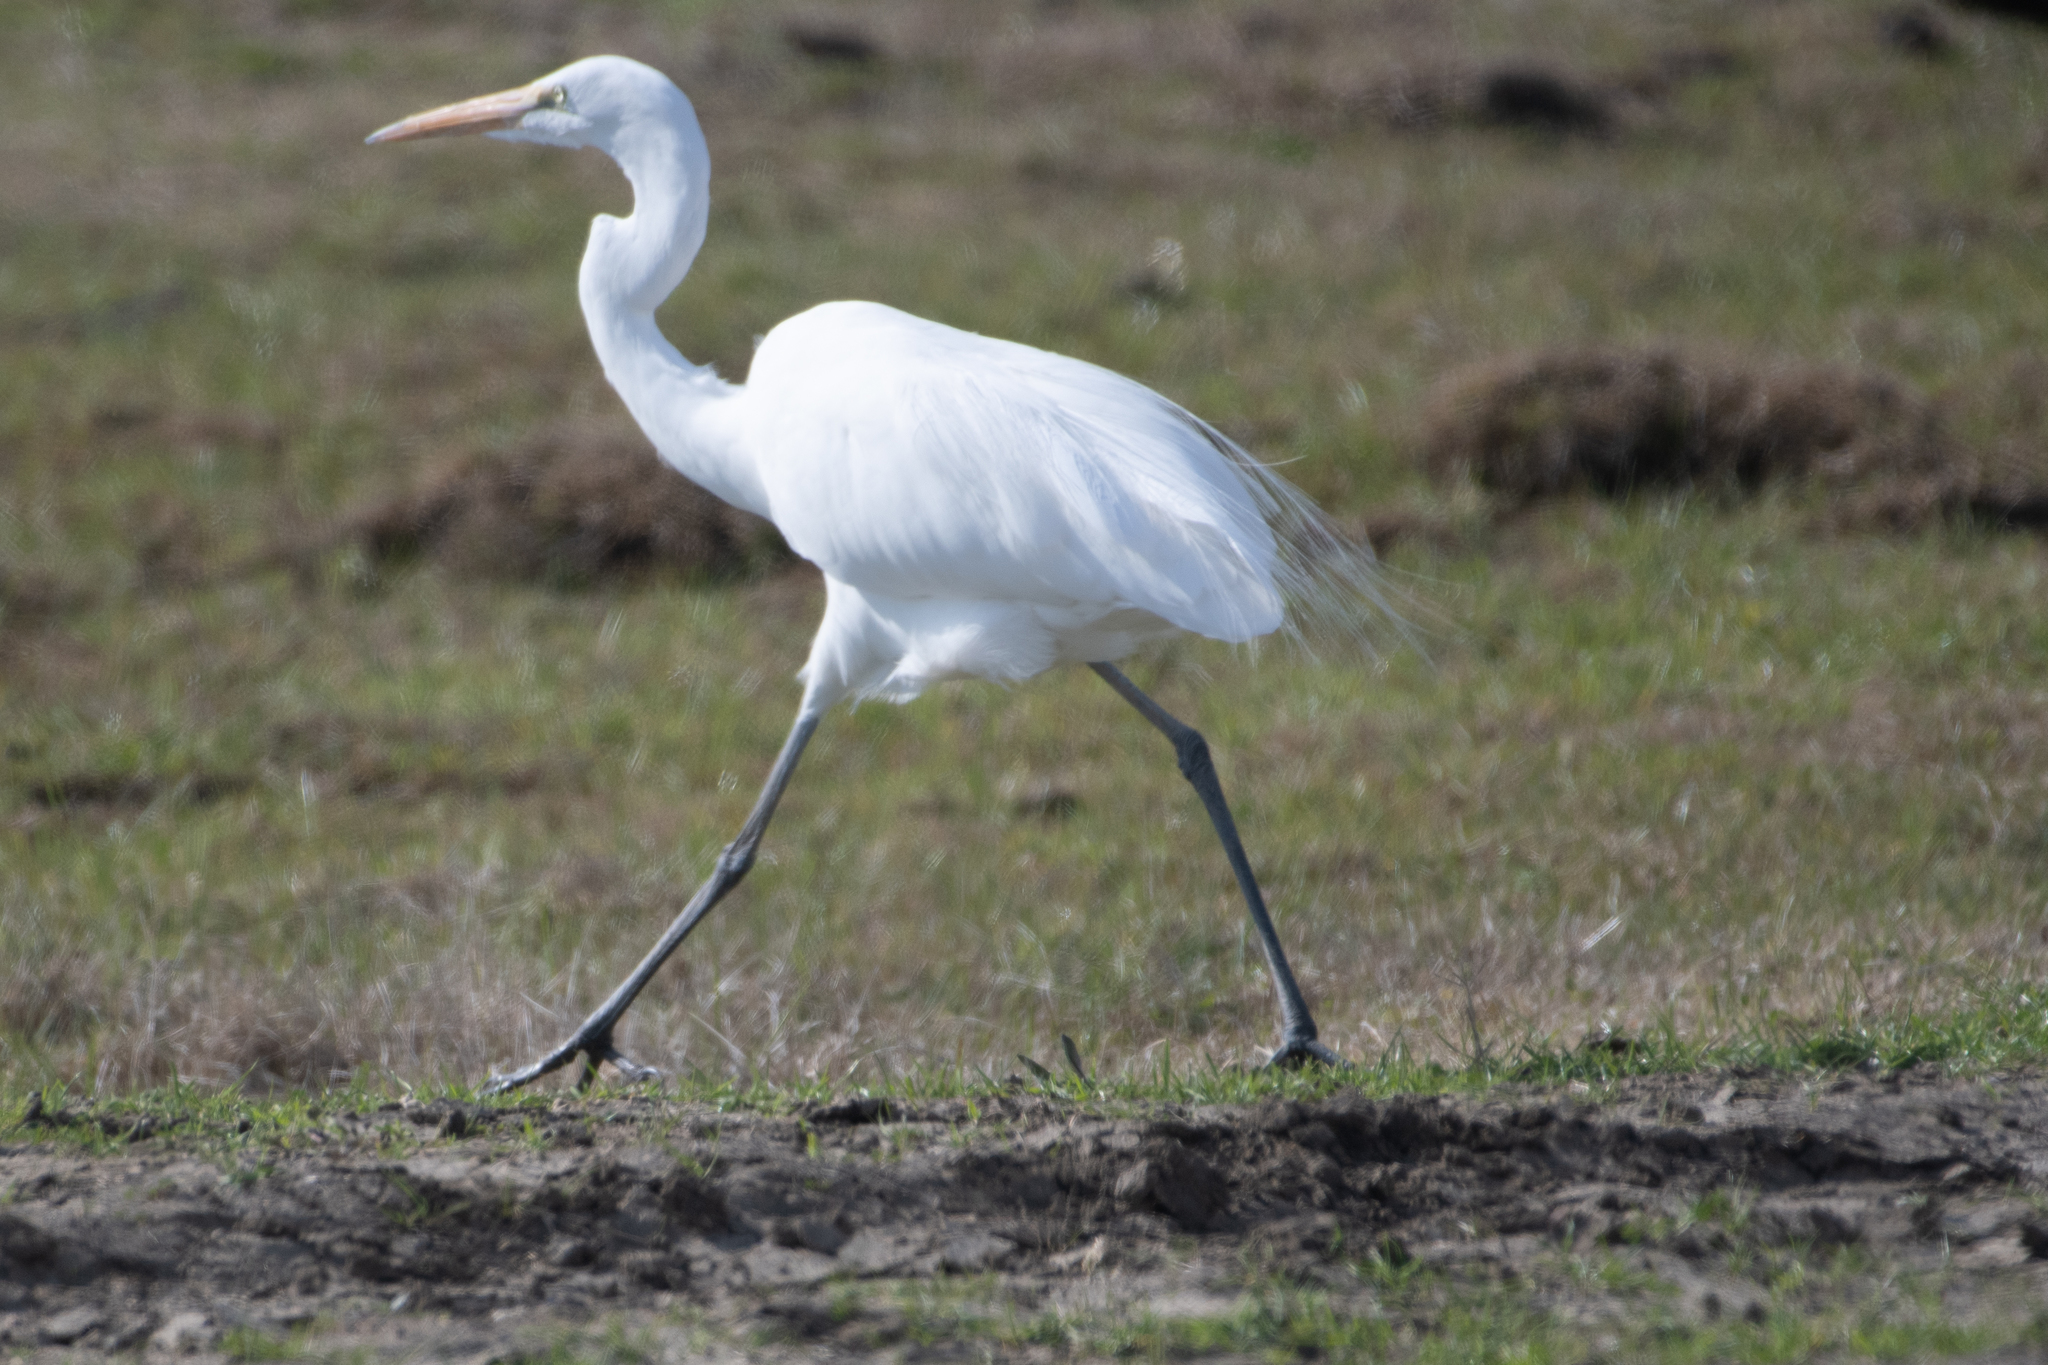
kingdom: Animalia
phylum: Chordata
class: Aves
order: Pelecaniformes
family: Ardeidae
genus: Ardea
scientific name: Ardea alba
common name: Great egret
